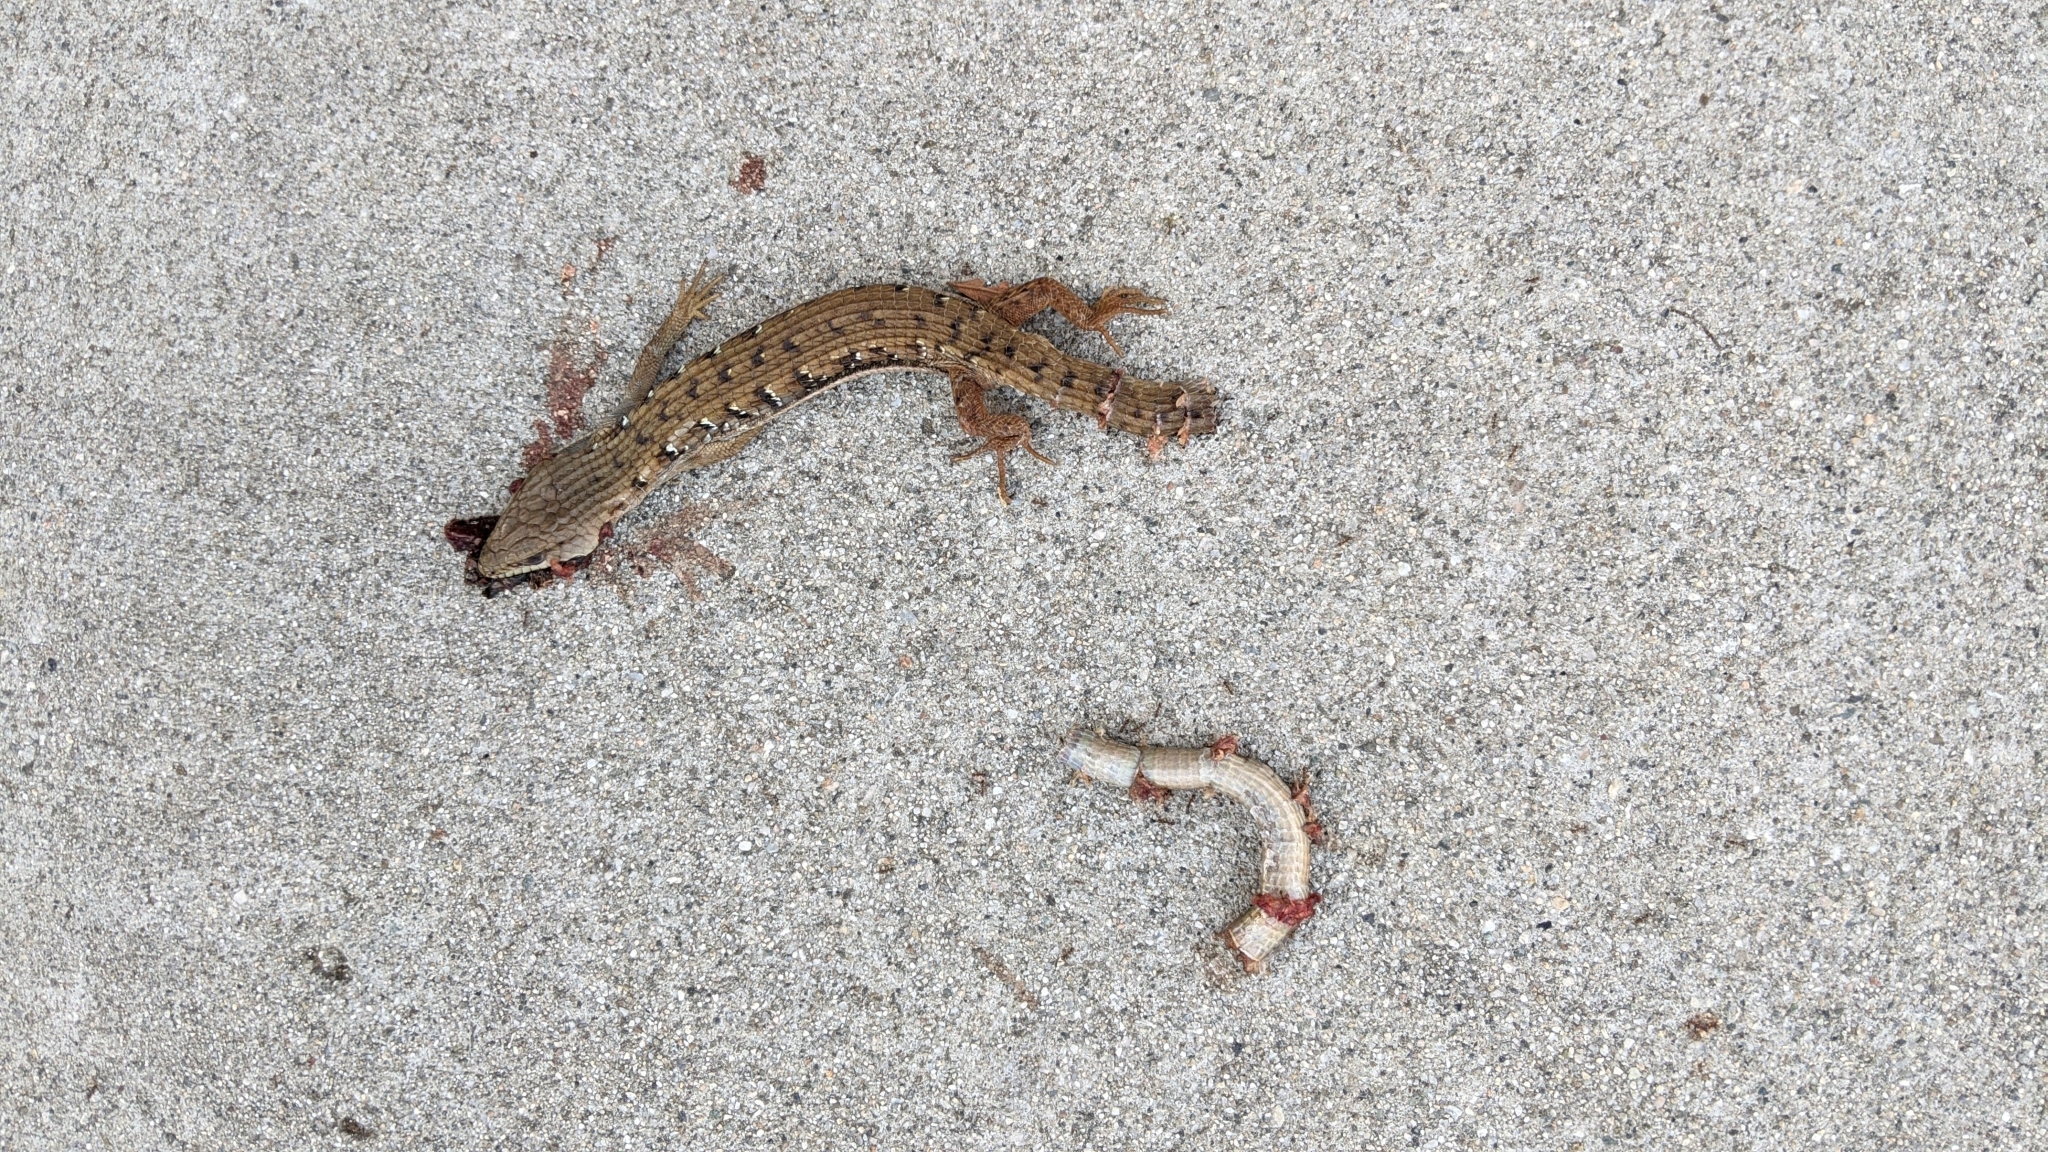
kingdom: Animalia
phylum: Chordata
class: Squamata
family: Anguidae
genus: Elgaria
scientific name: Elgaria multicarinata
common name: Southern alligator lizard
